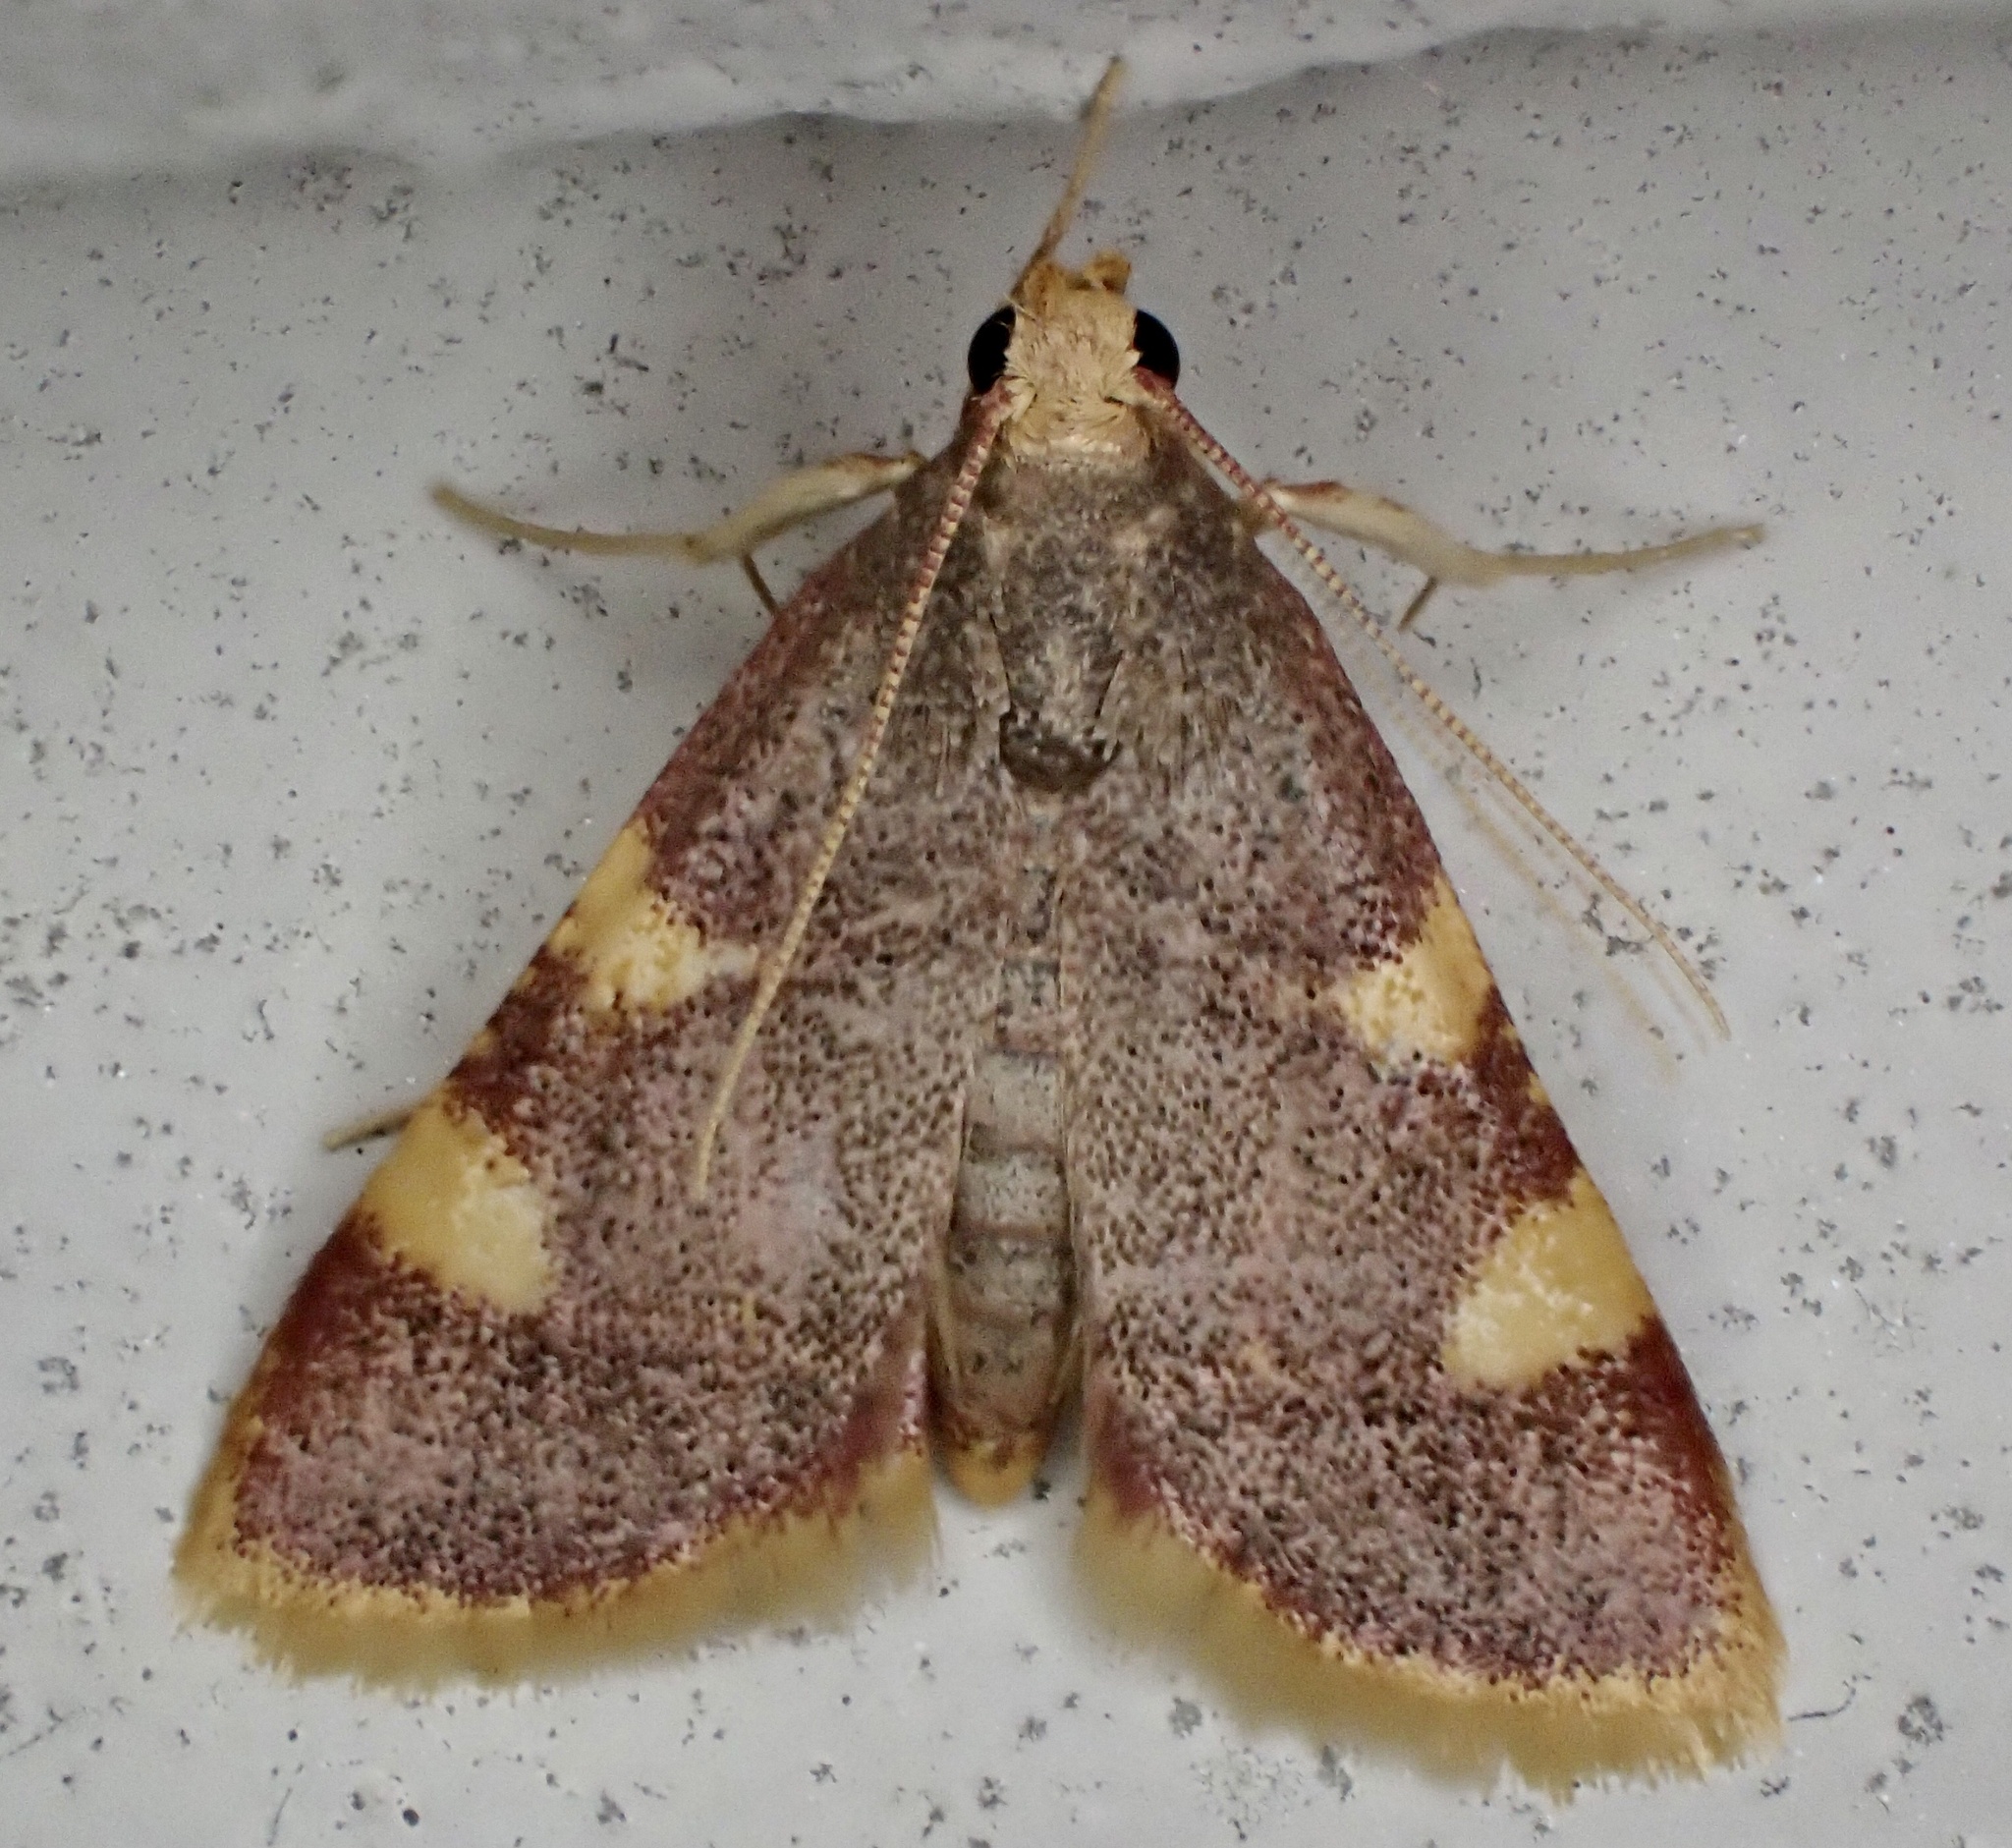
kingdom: Animalia
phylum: Arthropoda
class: Insecta
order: Lepidoptera
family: Pyralidae
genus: Hypsopygia
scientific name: Hypsopygia costalis
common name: Gold triangle
